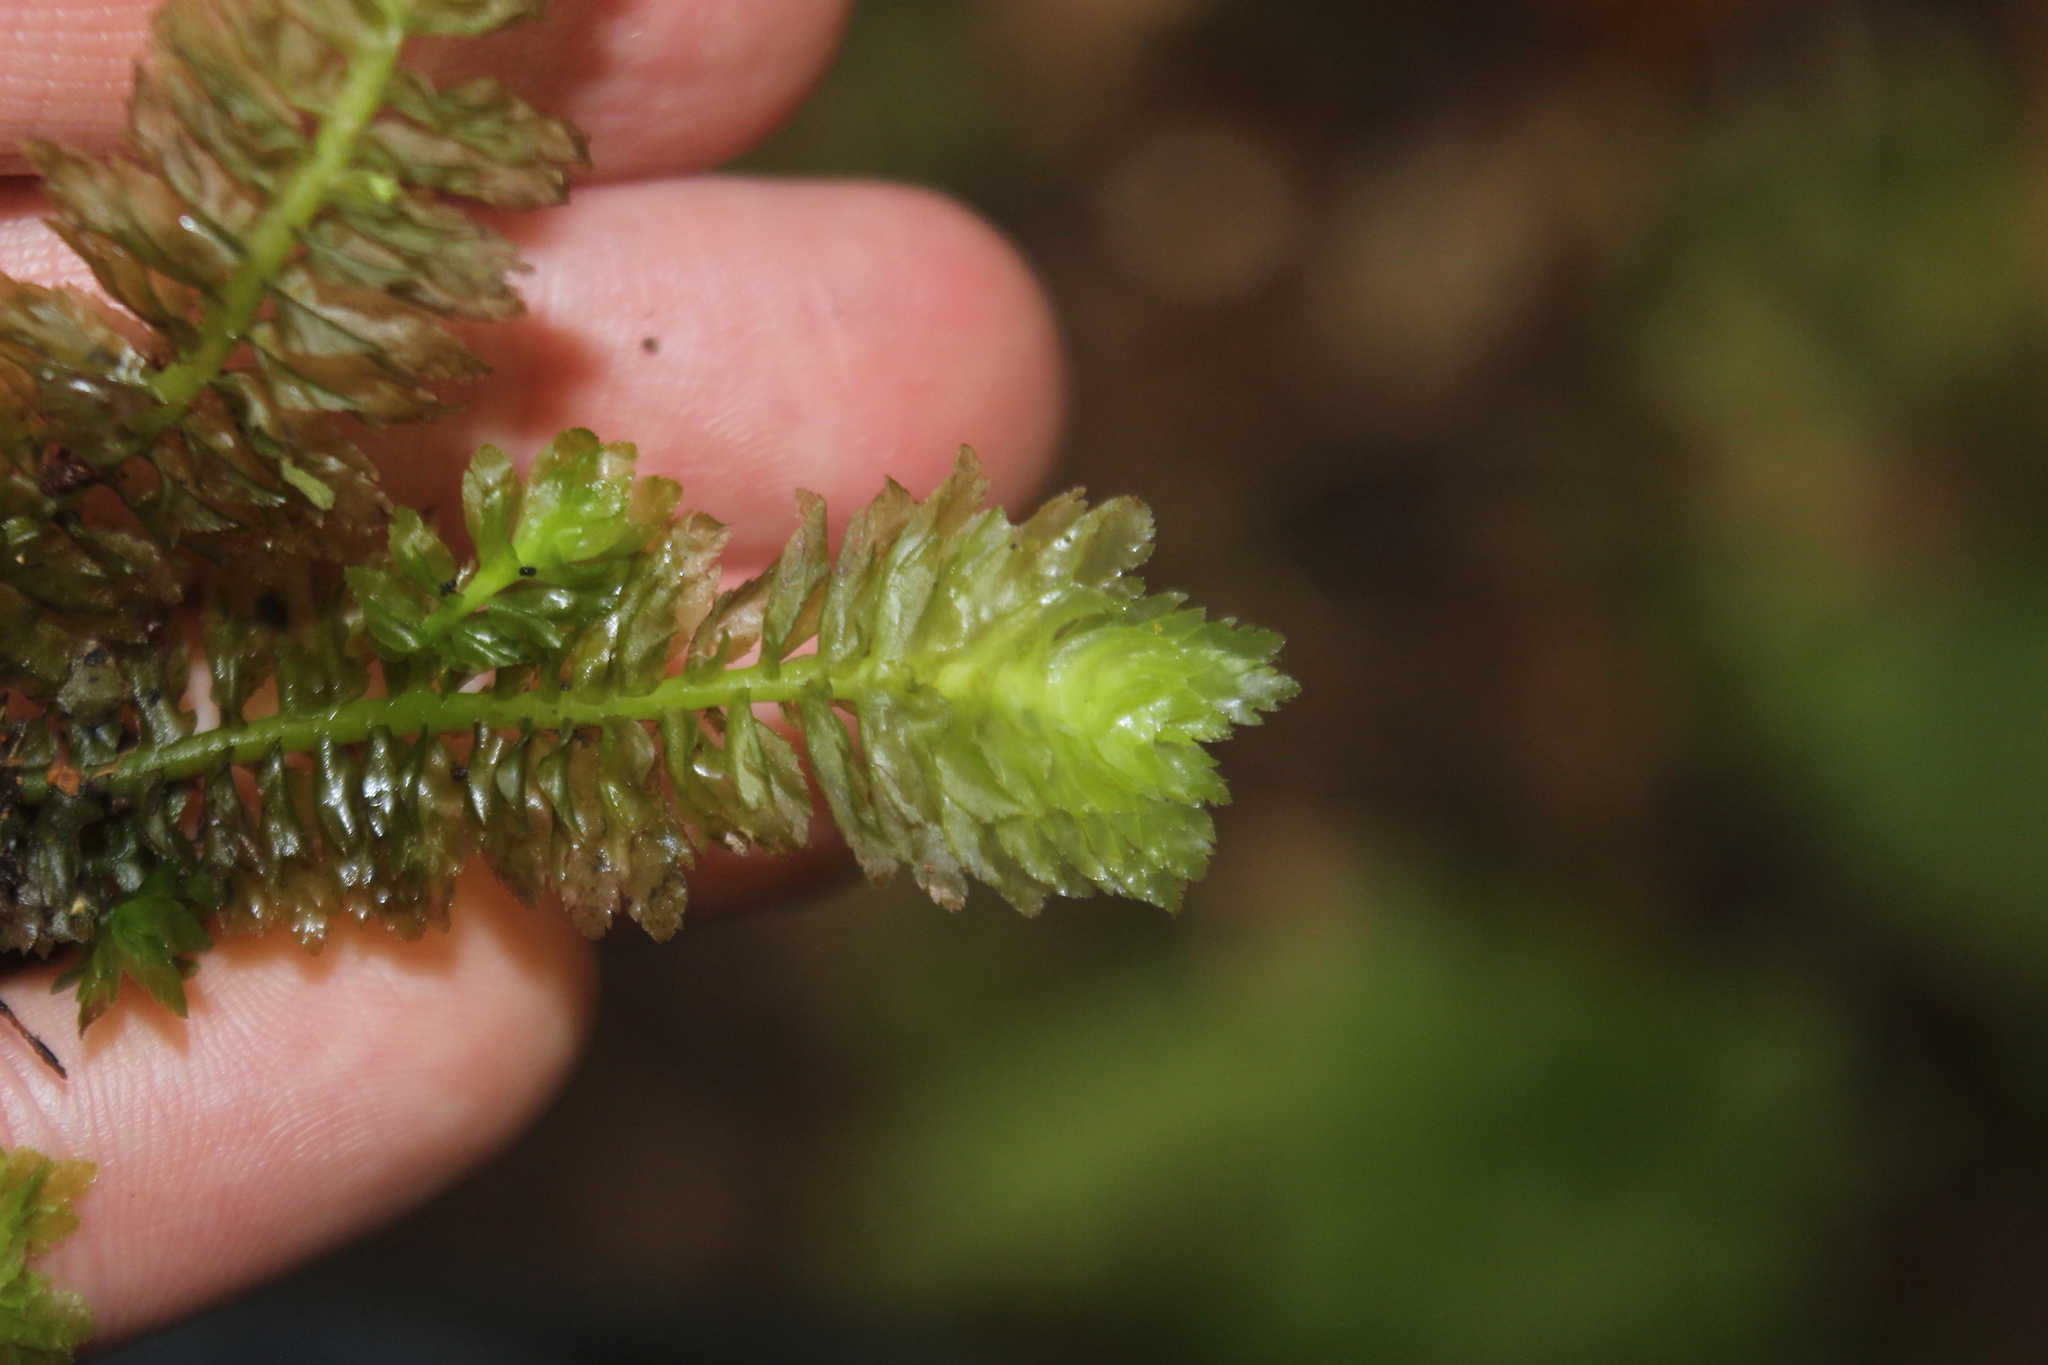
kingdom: Plantae
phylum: Marchantiophyta
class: Jungermanniopsida
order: Jungermanniales
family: Schistochilaceae
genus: Schistochila
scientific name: Schistochila appendiculata
